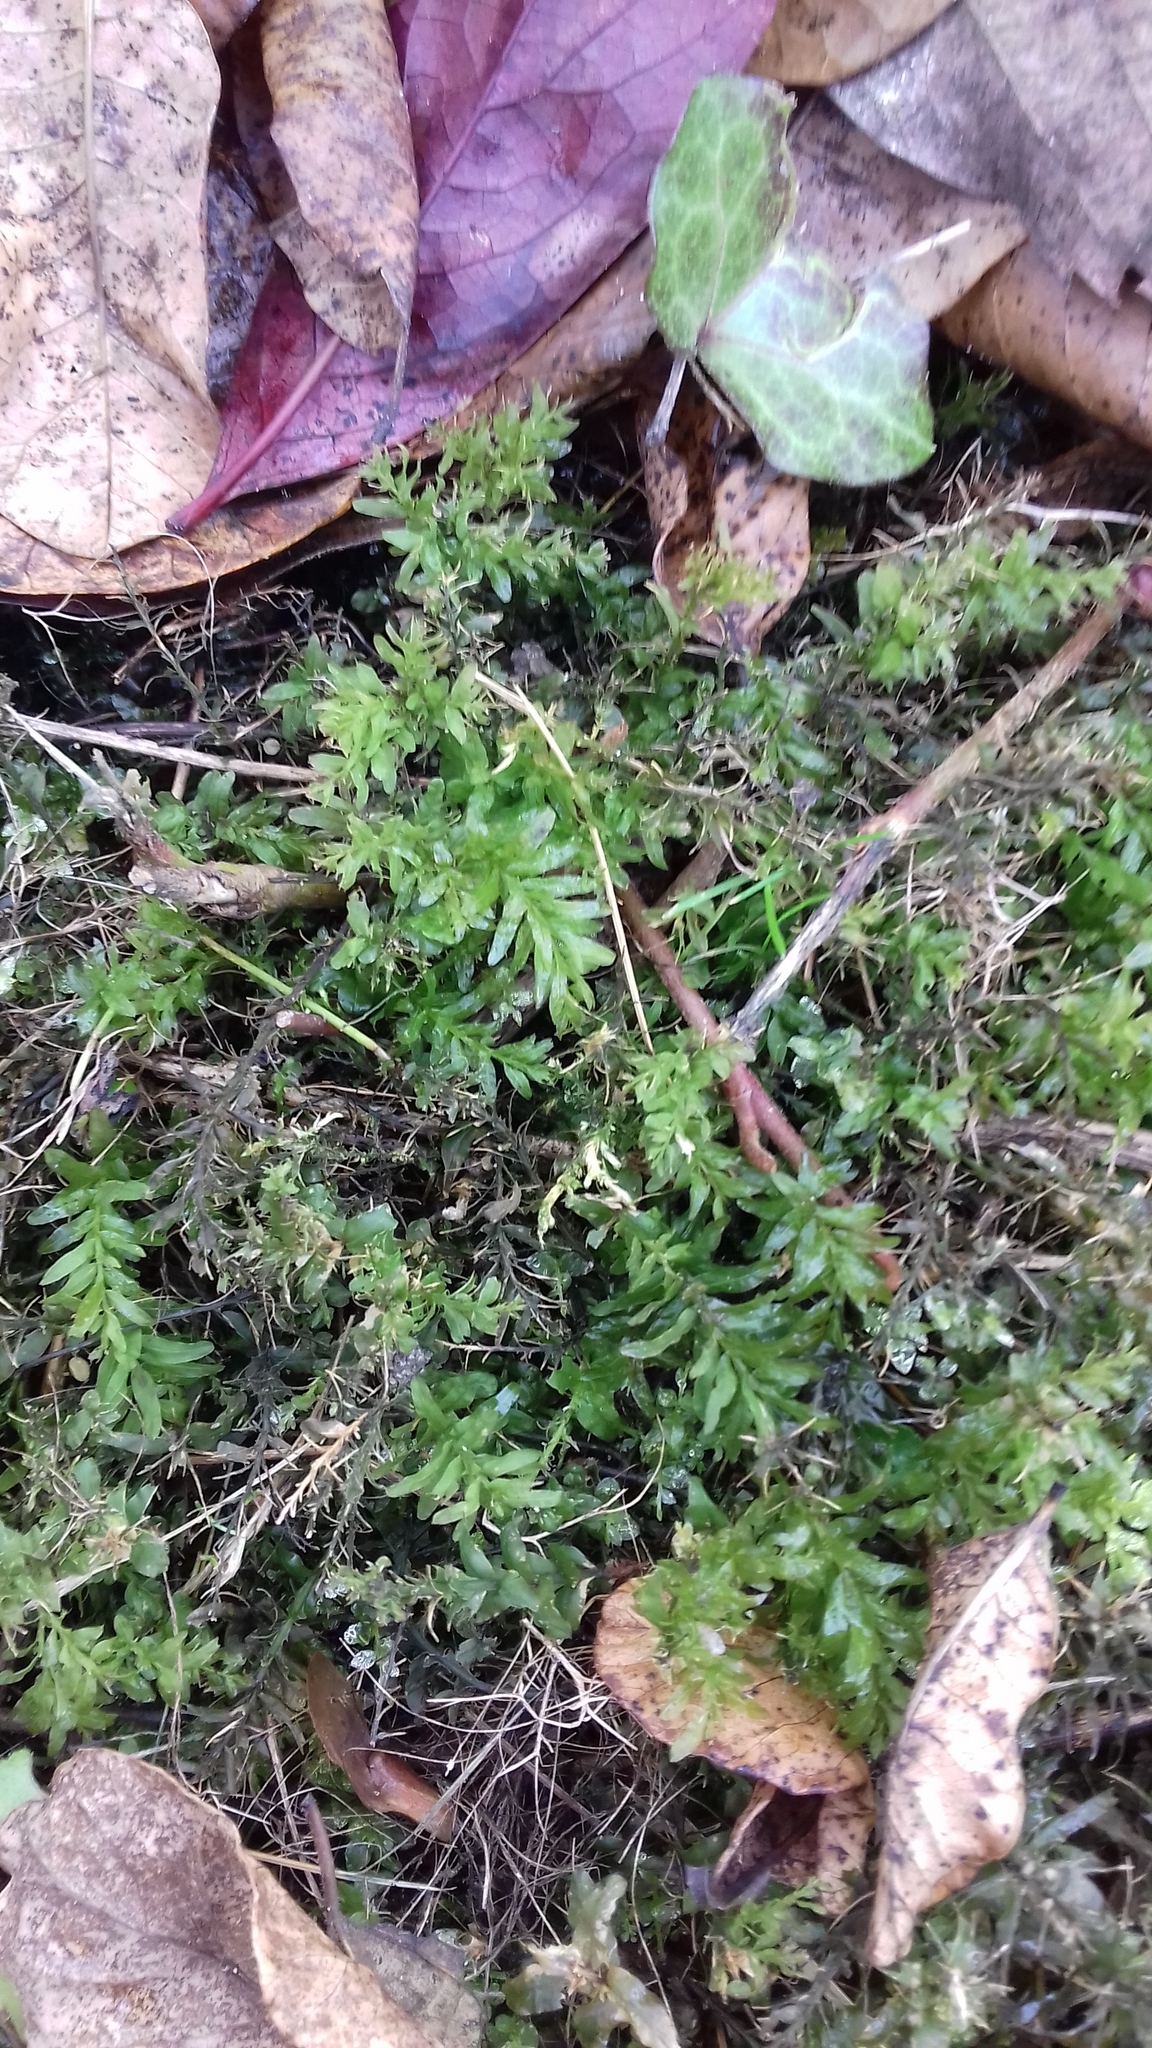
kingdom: Plantae
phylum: Bryophyta
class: Bryopsida
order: Bryales
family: Mniaceae
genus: Plagiomnium
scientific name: Plagiomnium undulatum
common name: Hart's-tongue thyme-moss
